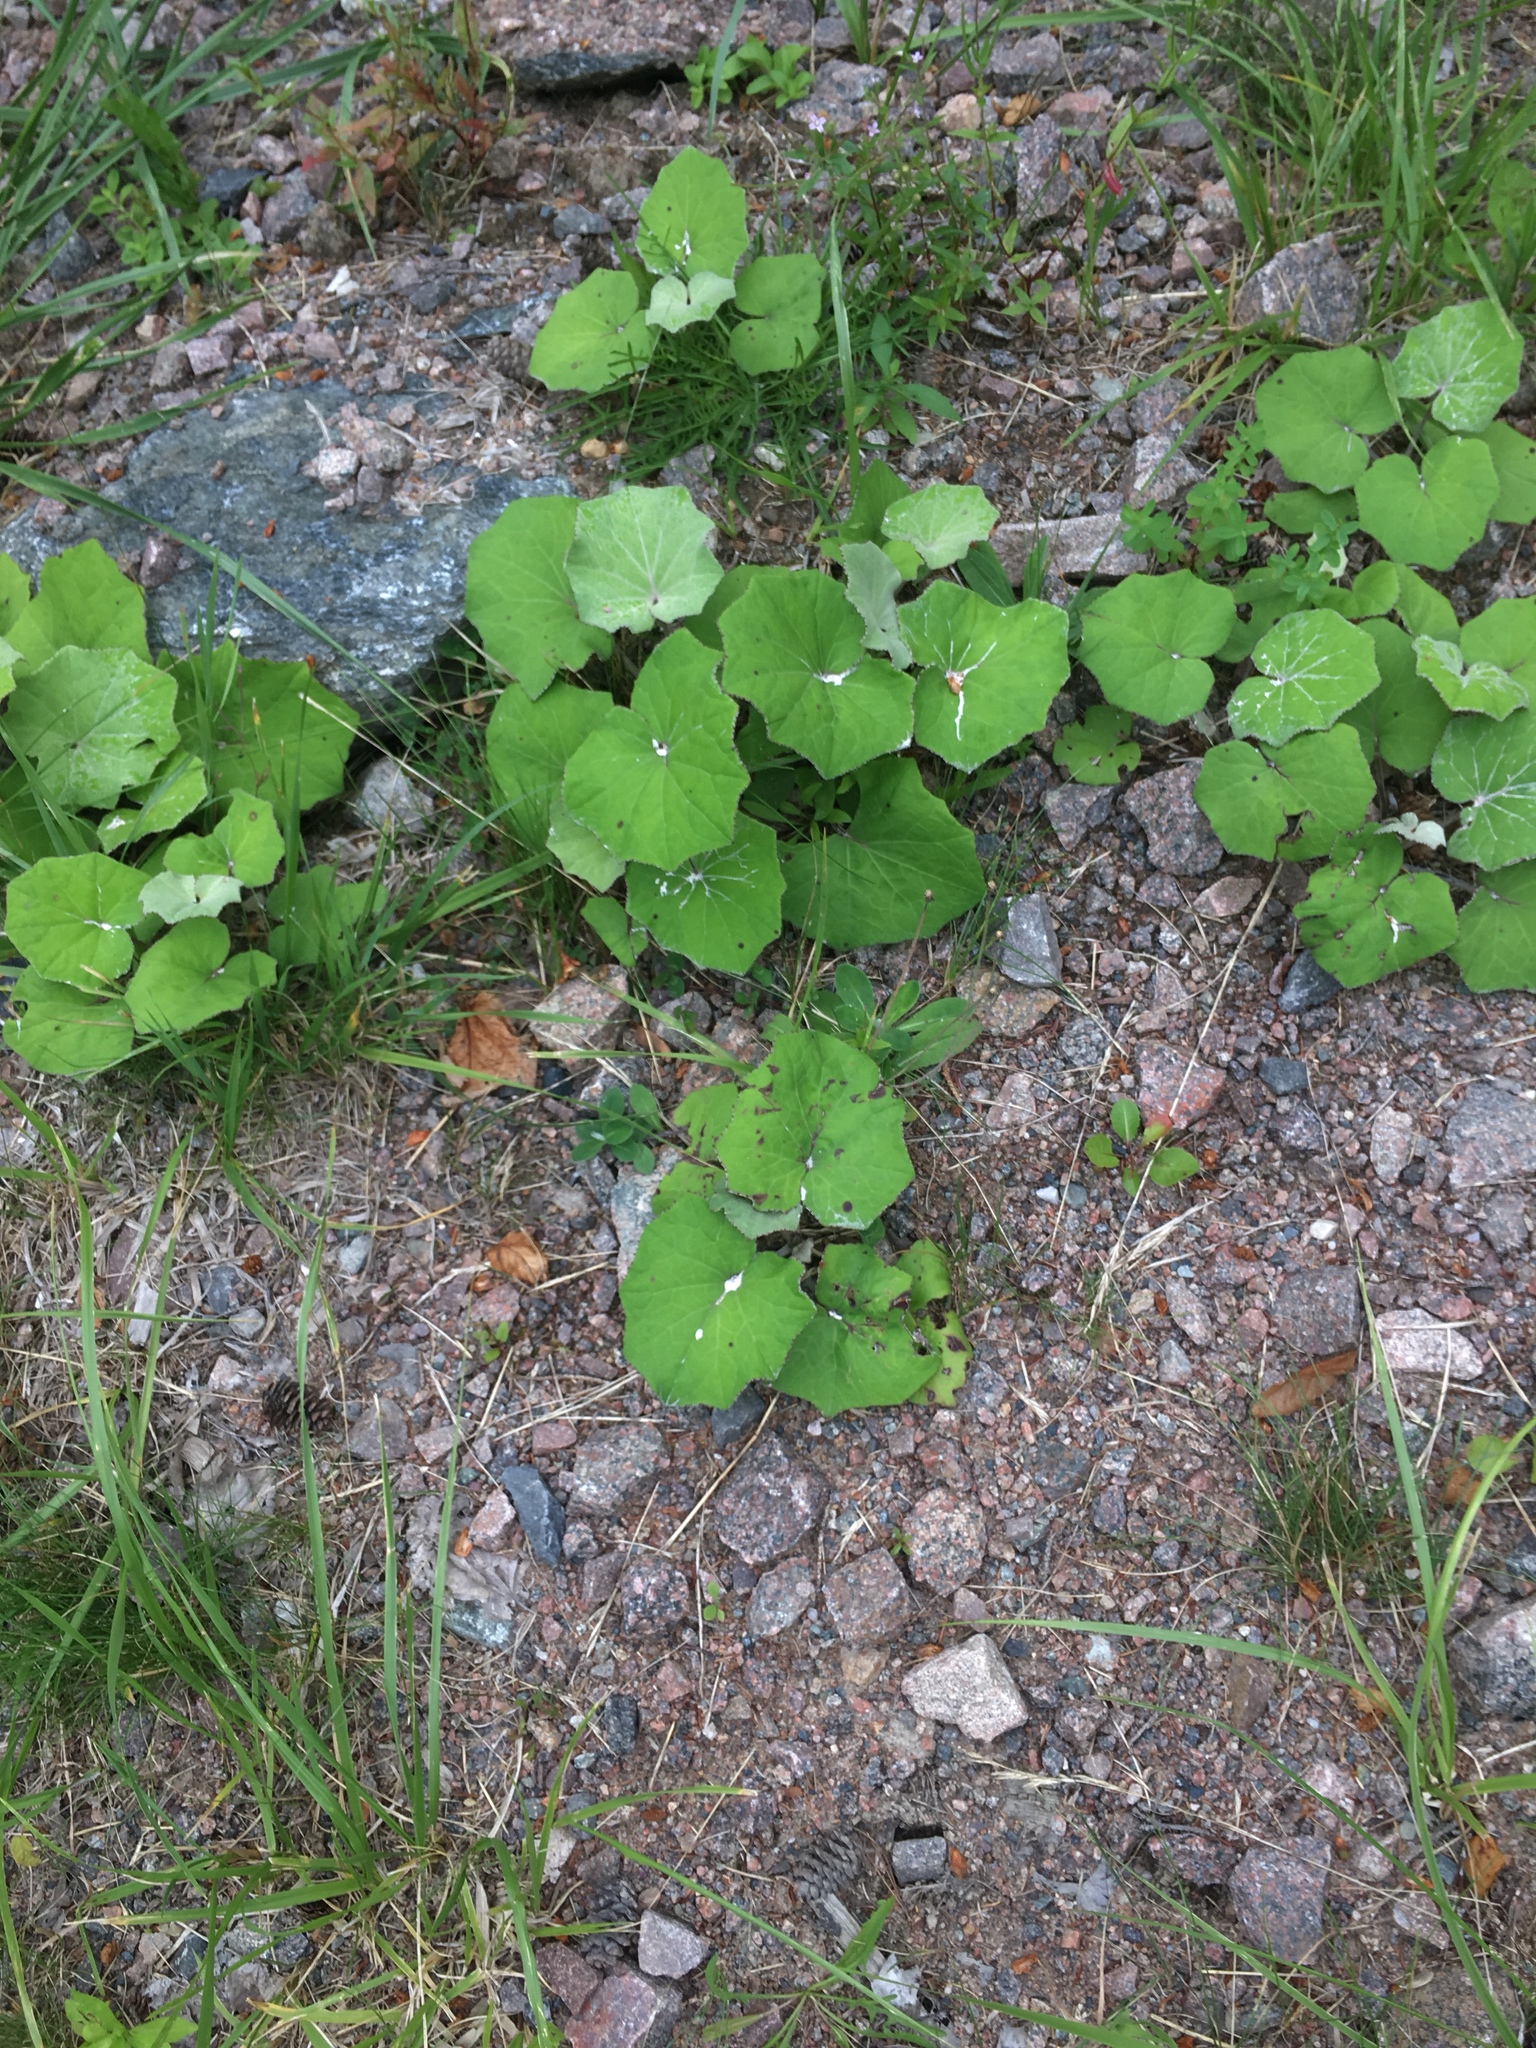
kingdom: Plantae
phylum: Tracheophyta
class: Magnoliopsida
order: Asterales
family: Asteraceae
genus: Tussilago
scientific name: Tussilago farfara
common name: Coltsfoot
